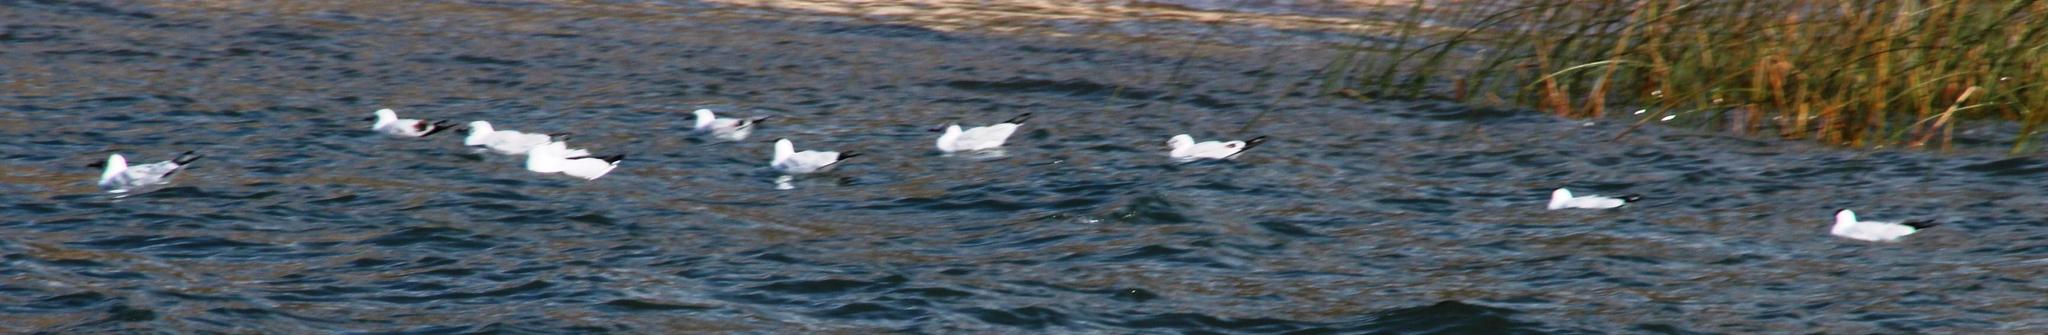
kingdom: Animalia
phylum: Chordata
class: Aves
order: Charadriiformes
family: Laridae
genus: Chroicocephalus
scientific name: Chroicocephalus cirrocephalus
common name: Grey-headed gull
